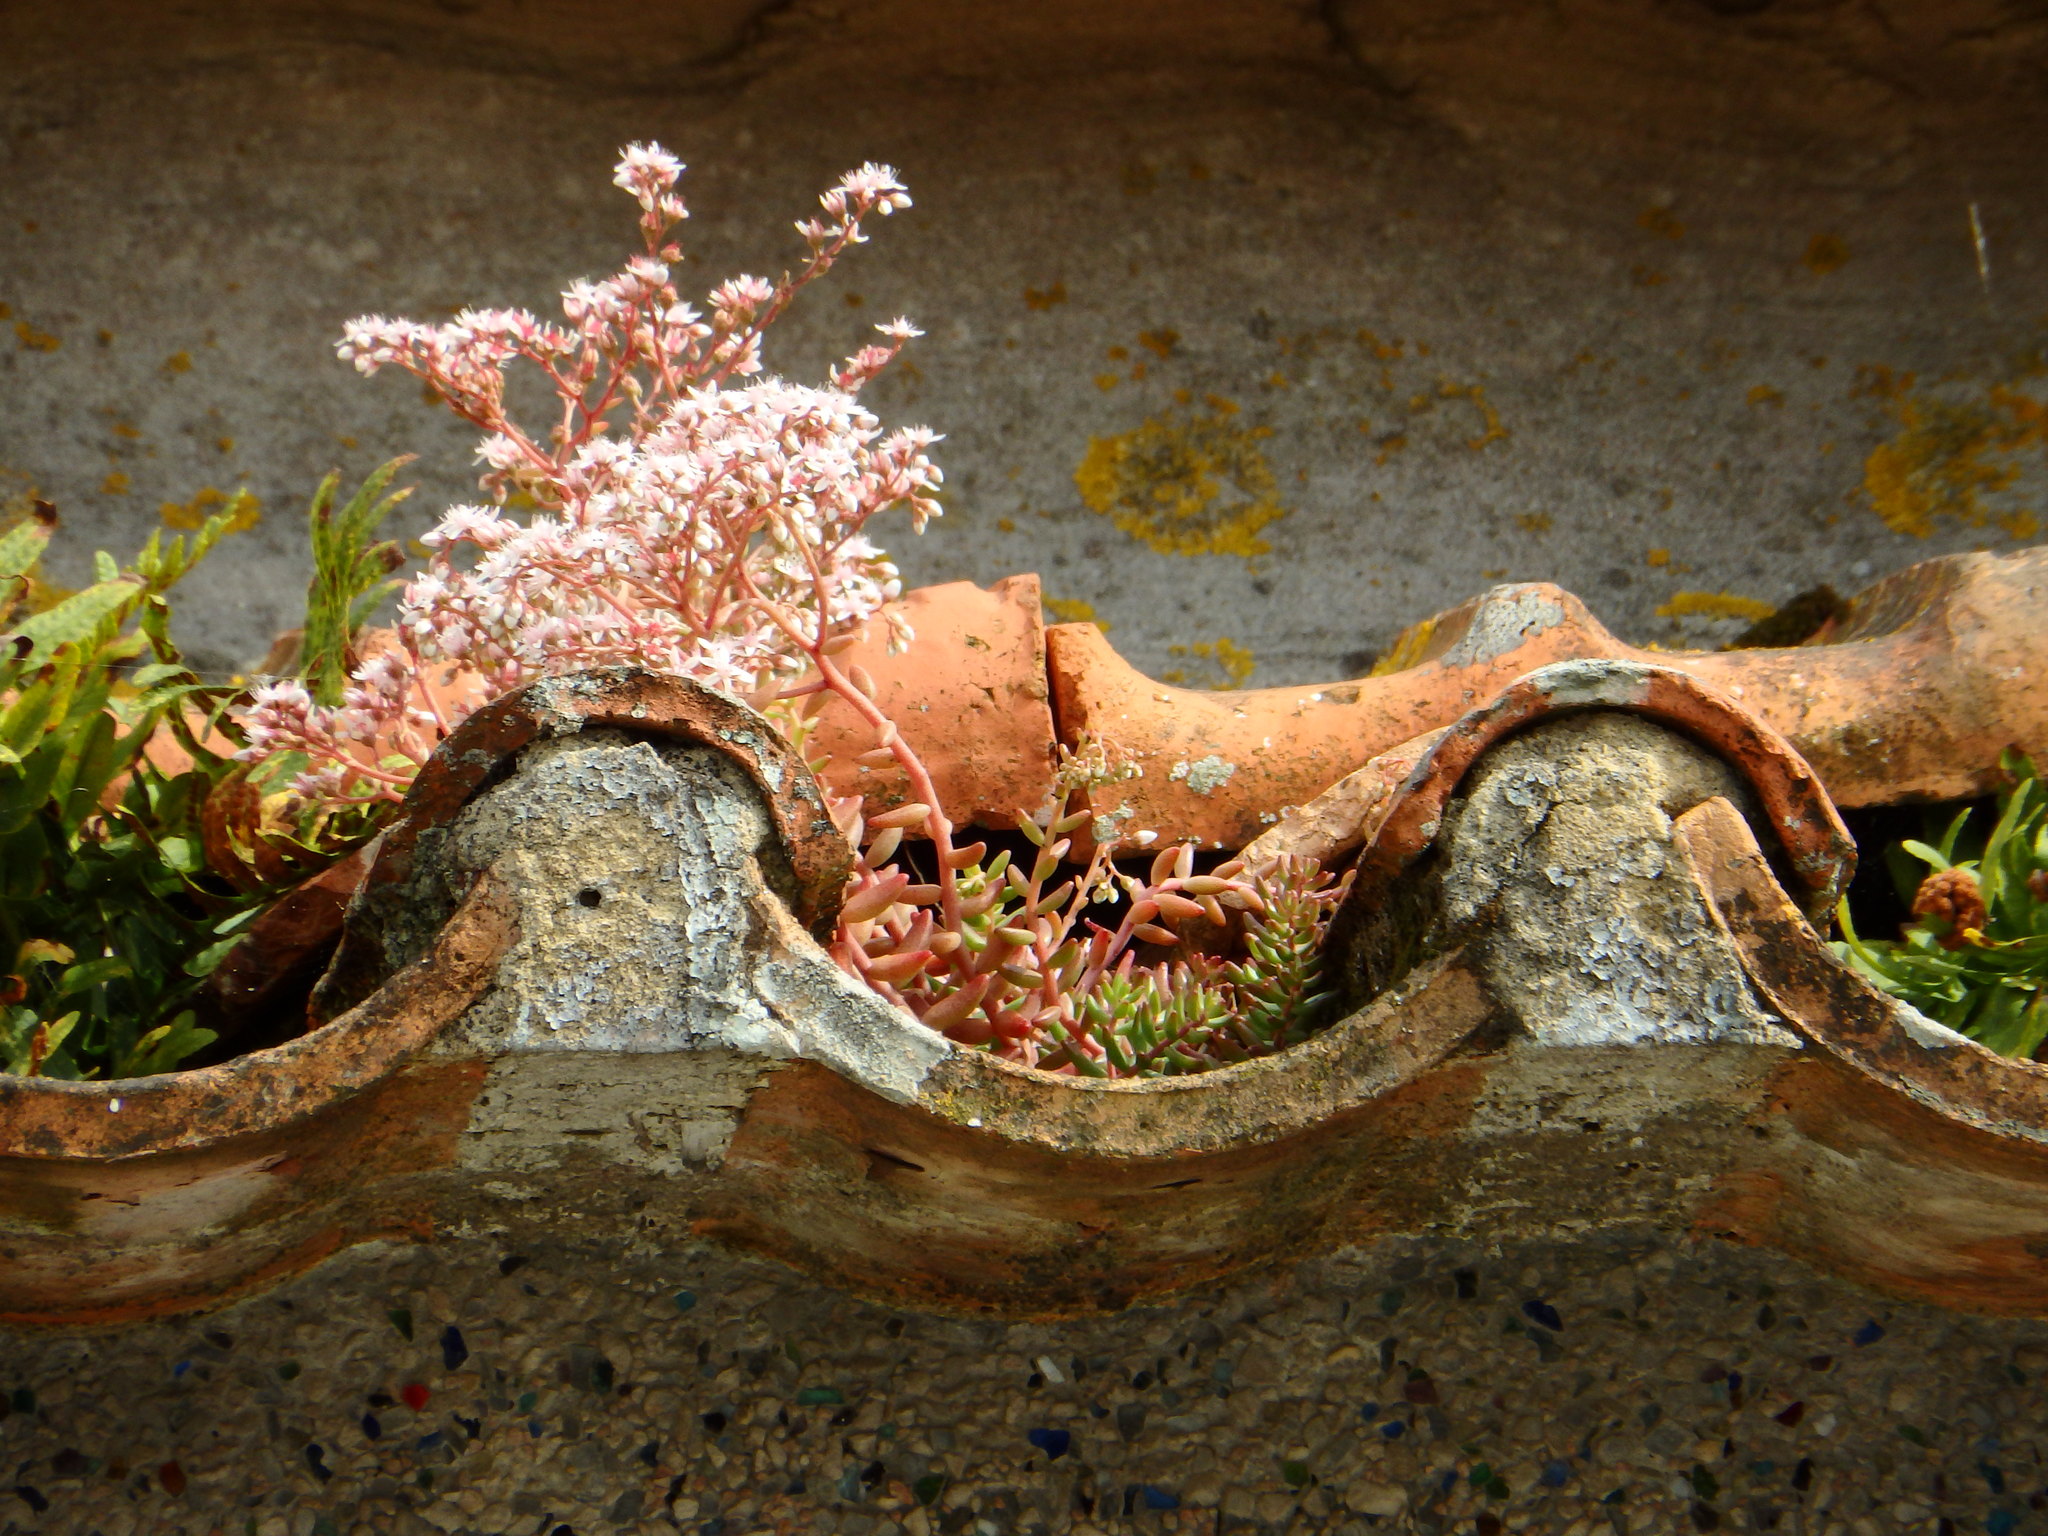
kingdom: Plantae
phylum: Tracheophyta
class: Magnoliopsida
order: Saxifragales
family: Crassulaceae
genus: Sedum
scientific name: Sedum album
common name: White stonecrop
